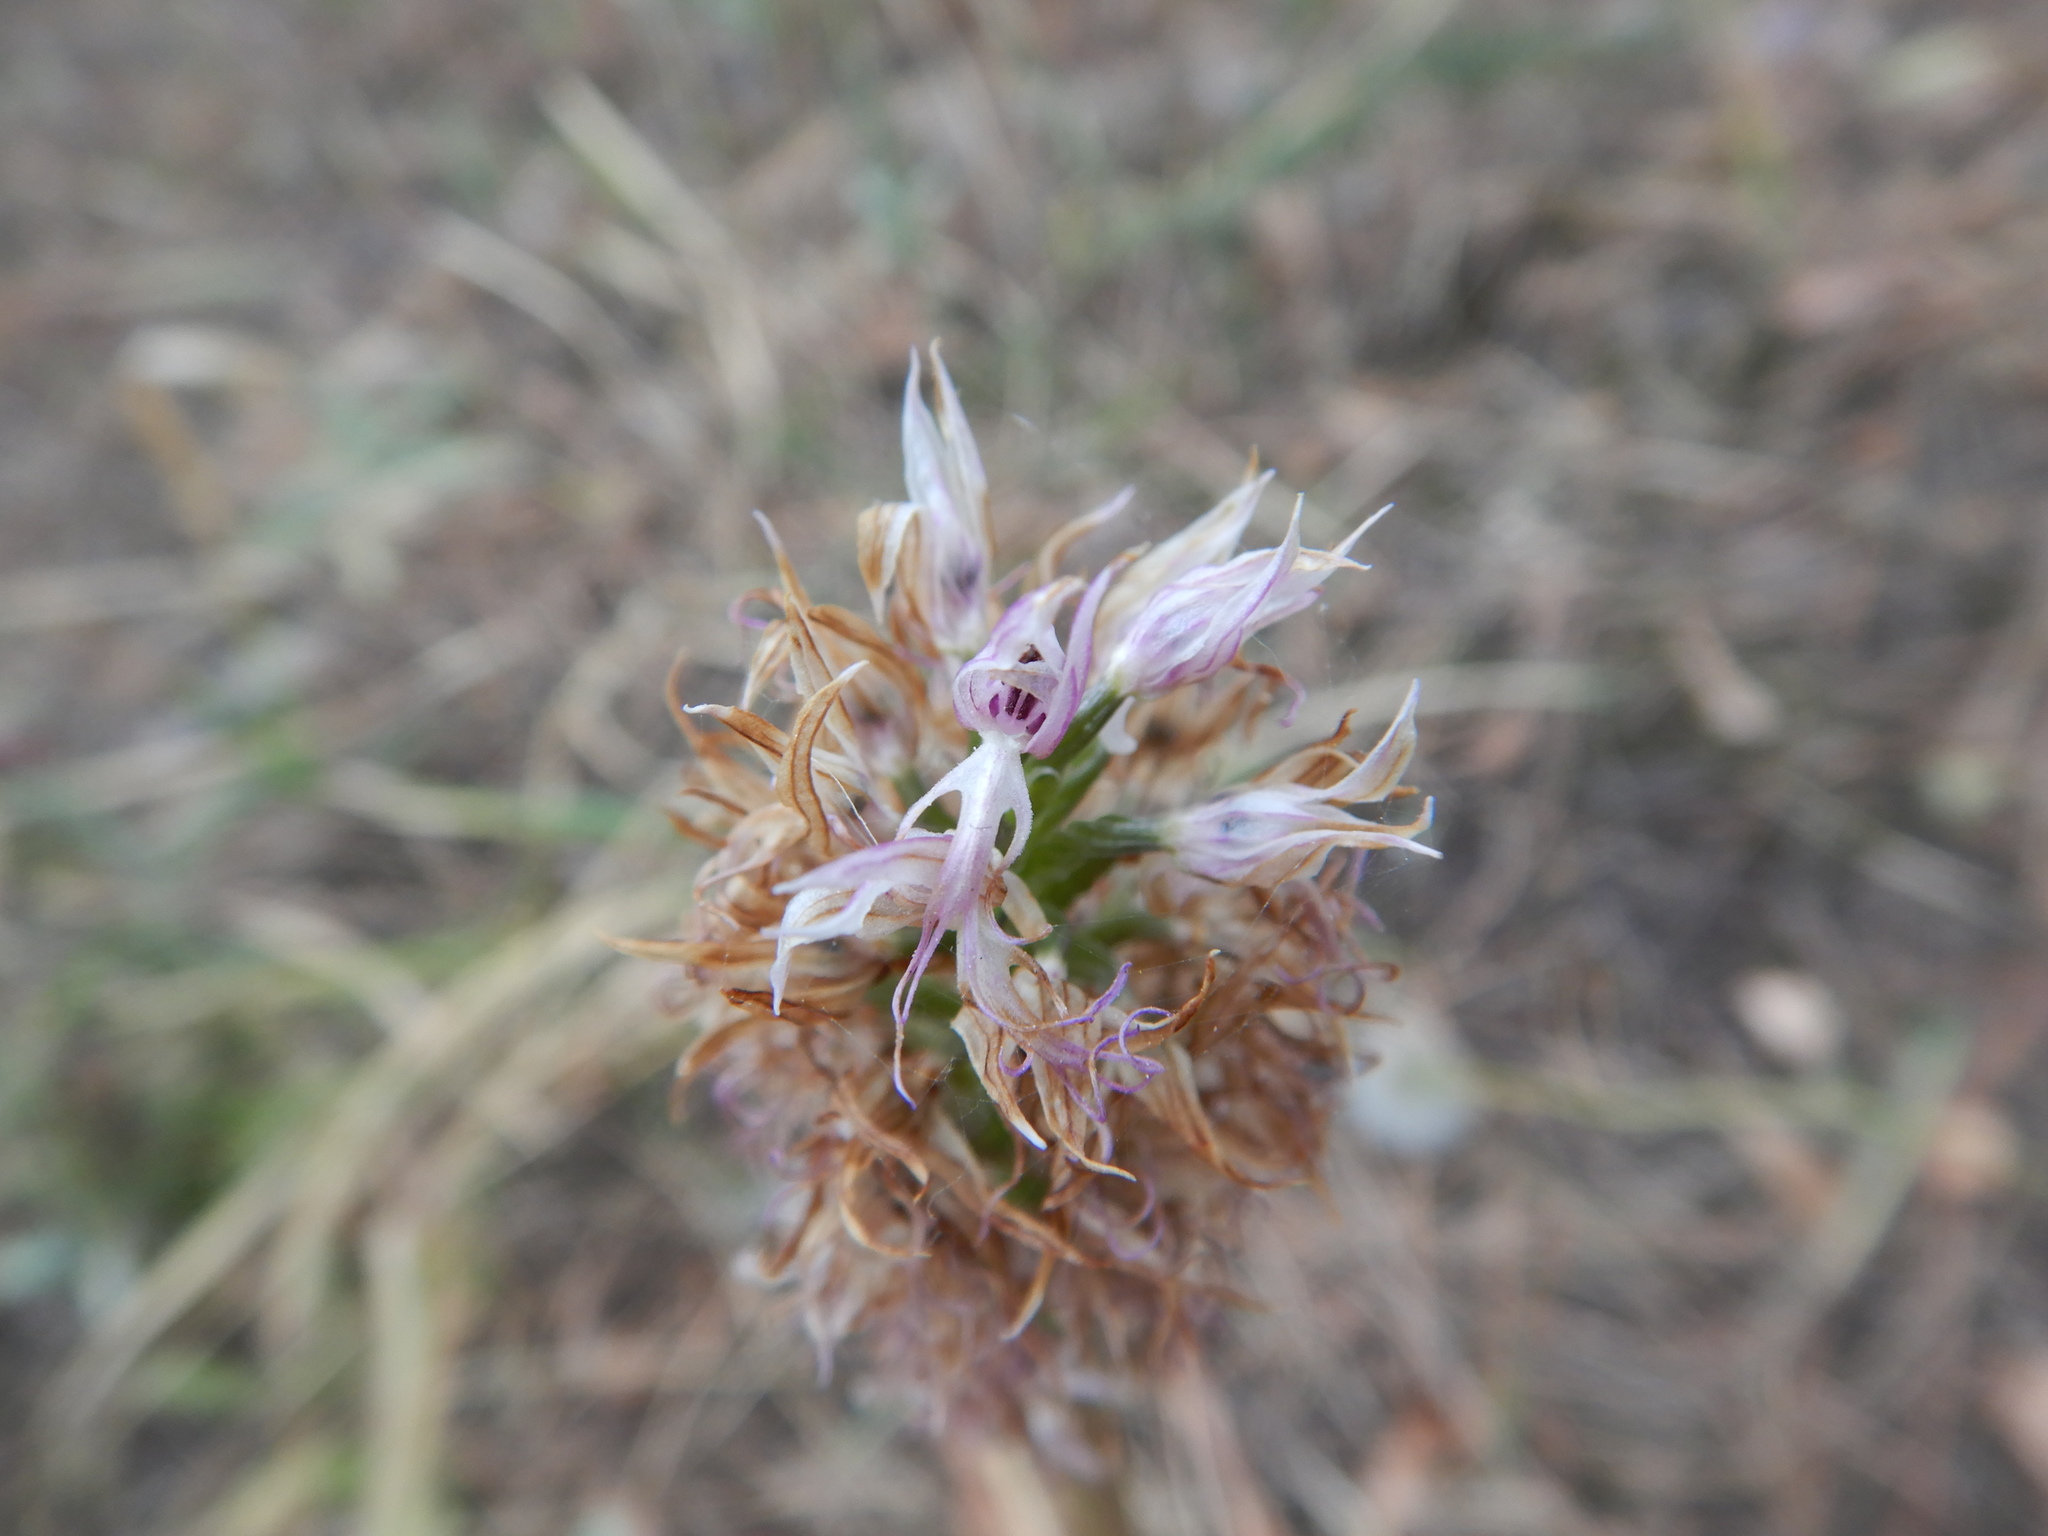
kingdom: Plantae
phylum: Tracheophyta
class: Liliopsida
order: Asparagales
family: Orchidaceae
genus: Orchis
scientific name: Orchis italica
